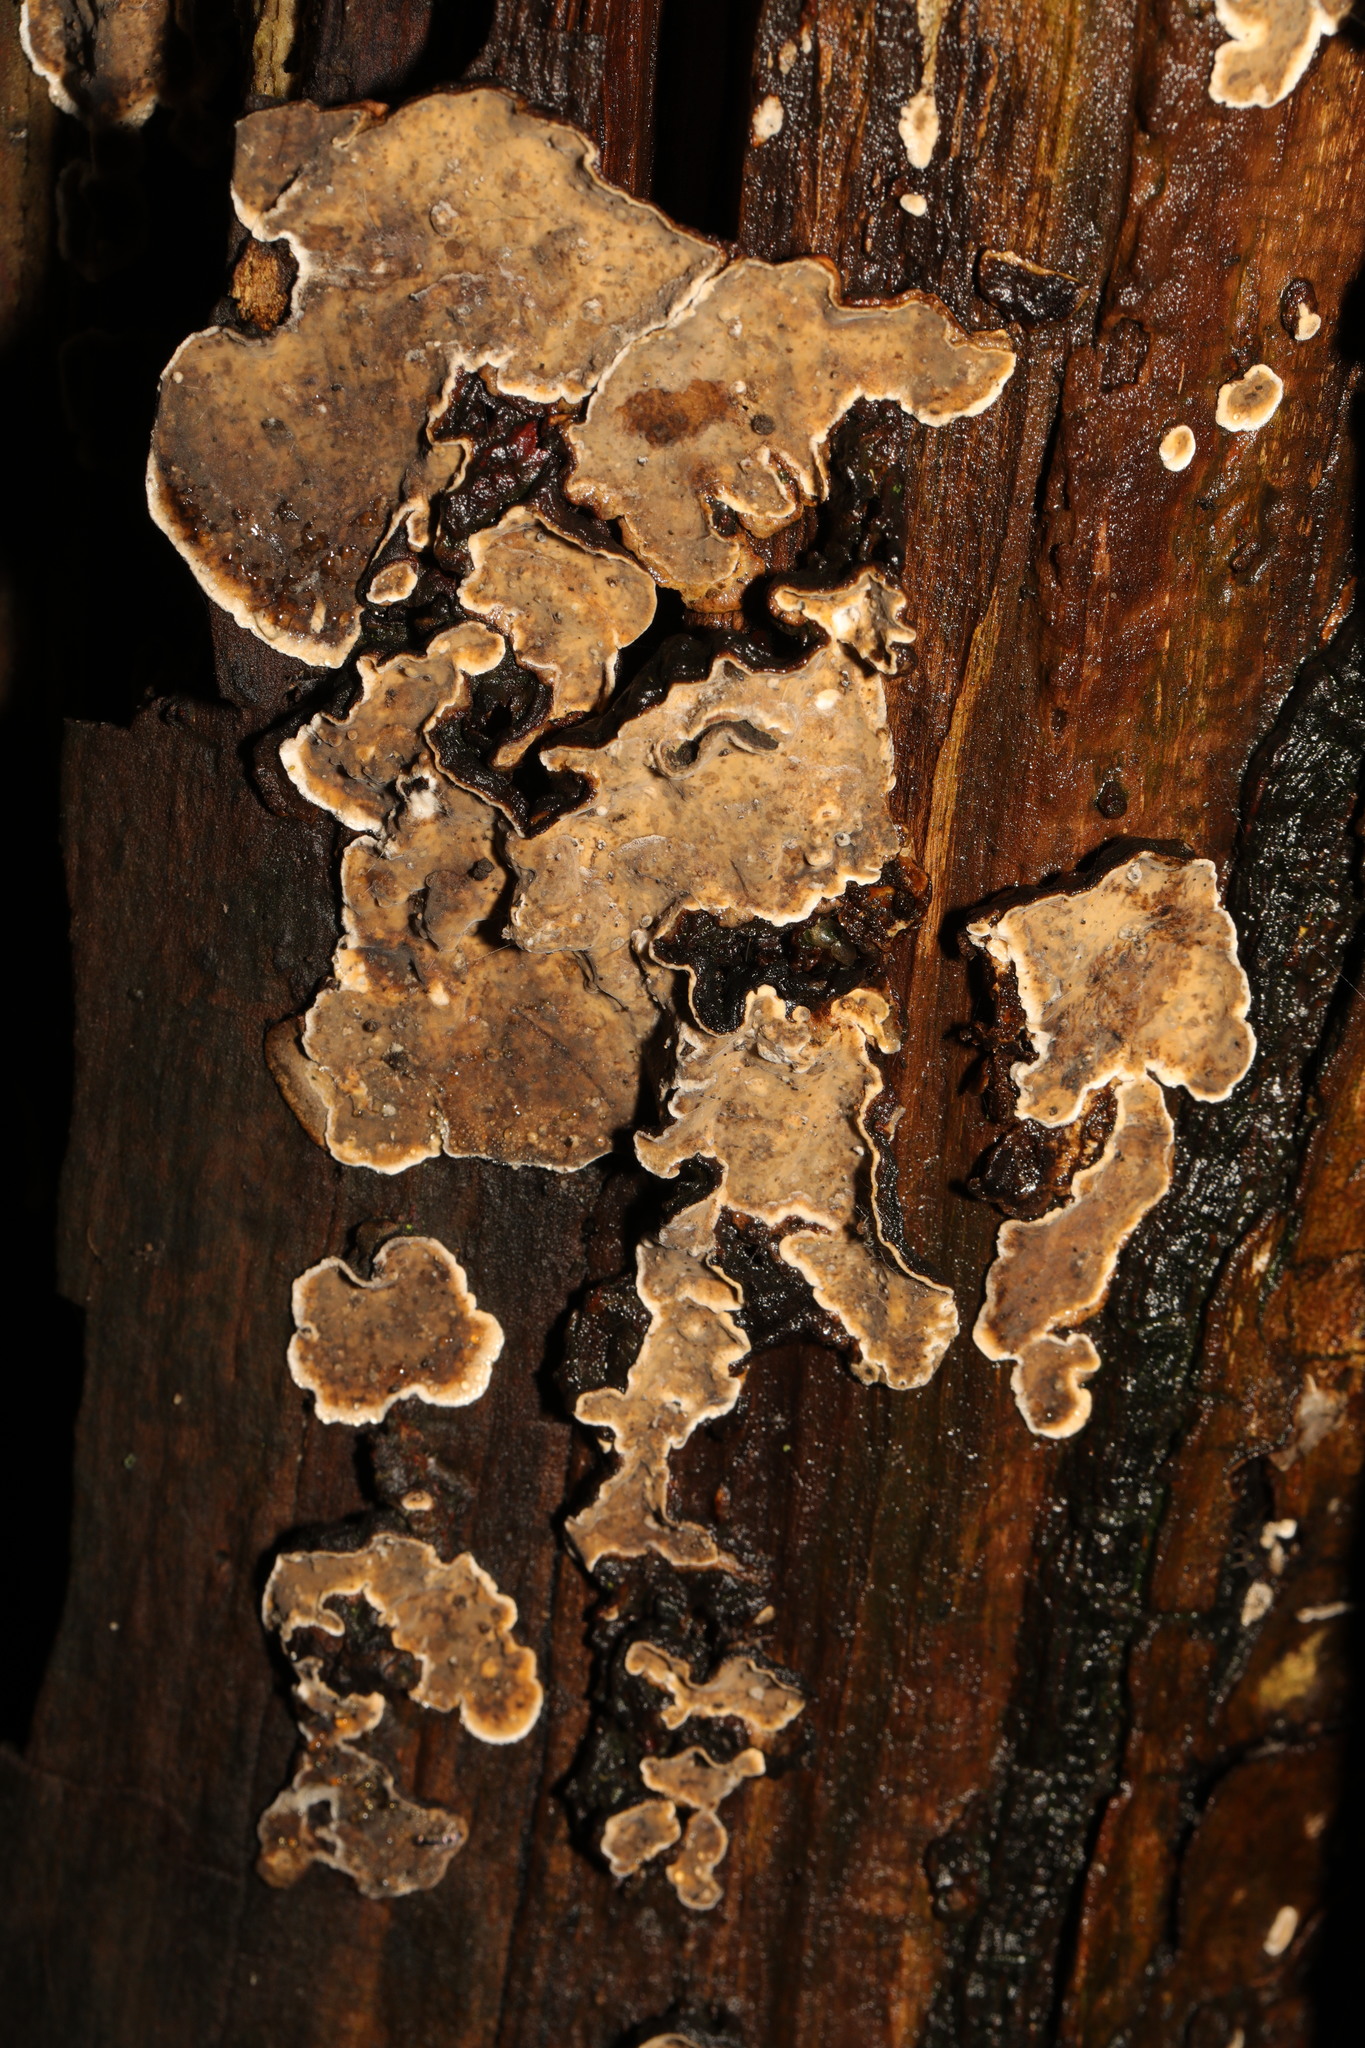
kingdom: Fungi
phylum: Basidiomycota
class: Agaricomycetes
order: Russulales
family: Stereaceae
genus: Stereum
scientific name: Stereum rugosum
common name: Bleeding broadleaf crust
